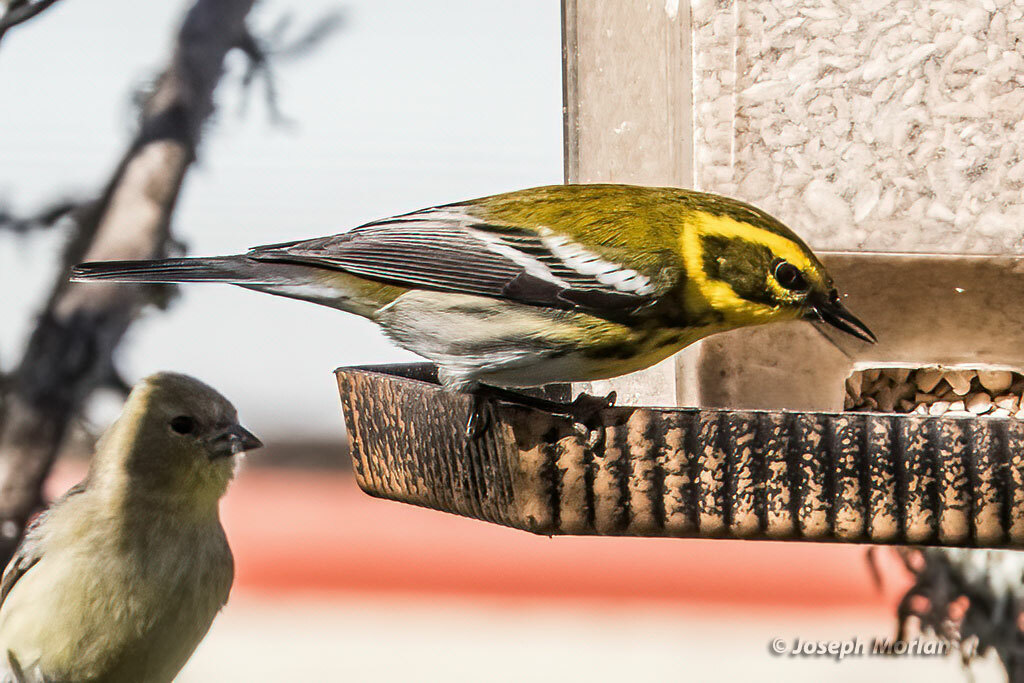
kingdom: Animalia
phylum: Chordata
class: Aves
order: Passeriformes
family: Parulidae
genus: Setophaga
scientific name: Setophaga townsendi
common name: Townsend's warbler
